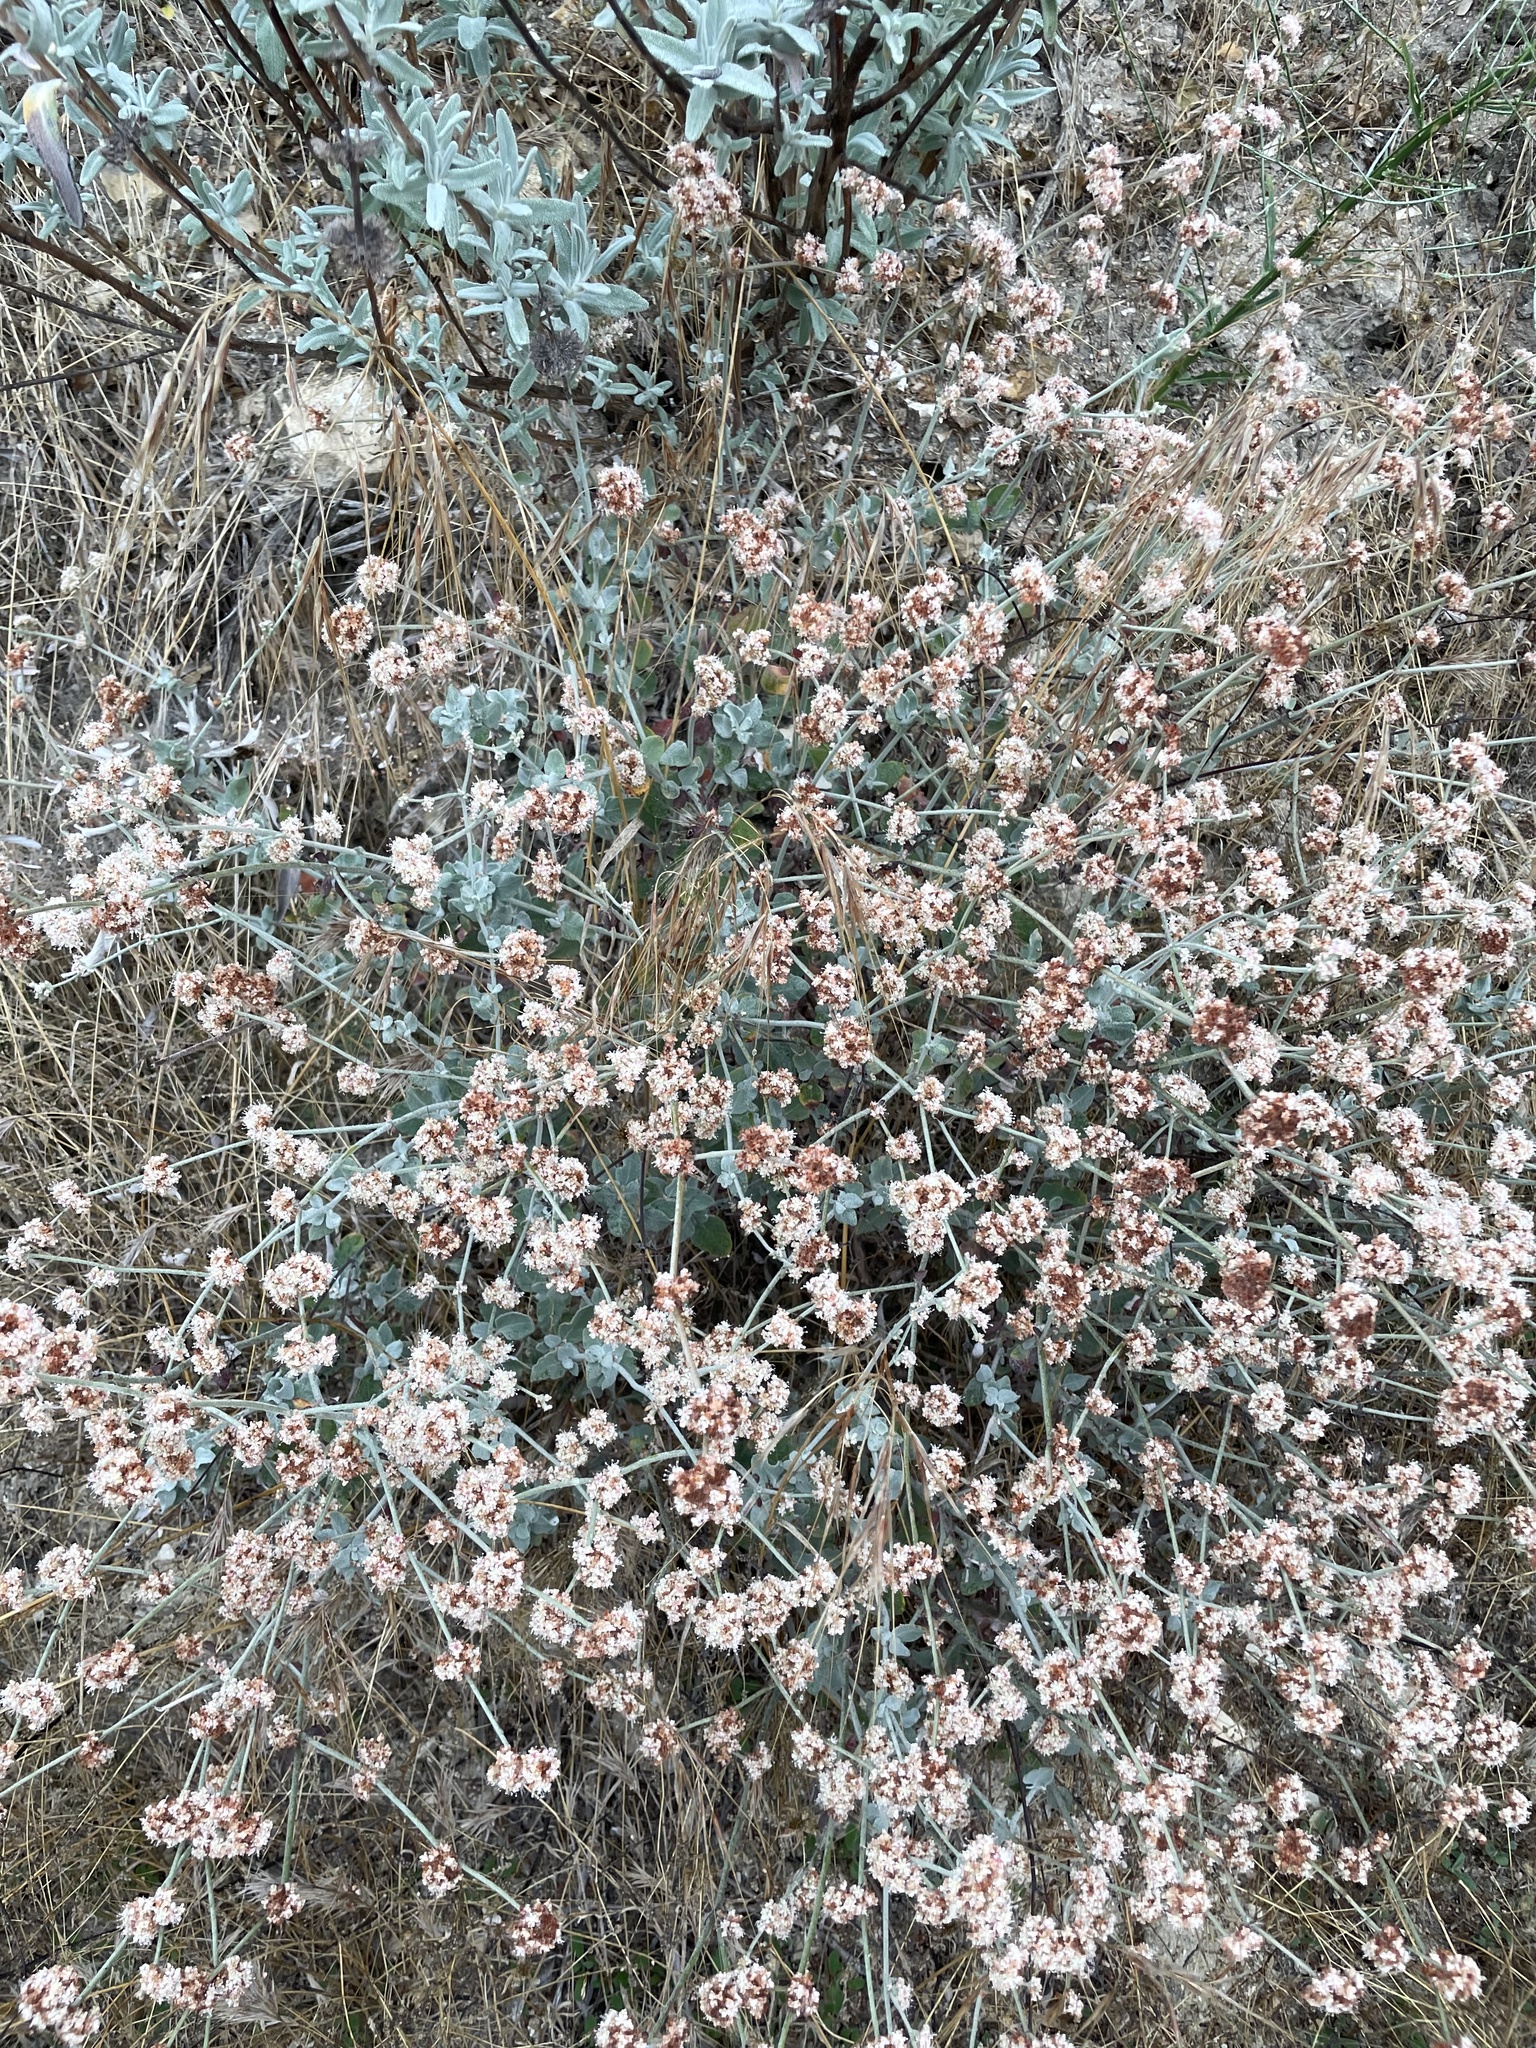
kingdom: Plantae
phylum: Tracheophyta
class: Magnoliopsida
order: Caryophyllales
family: Polygonaceae
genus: Eriogonum
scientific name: Eriogonum cinereum
